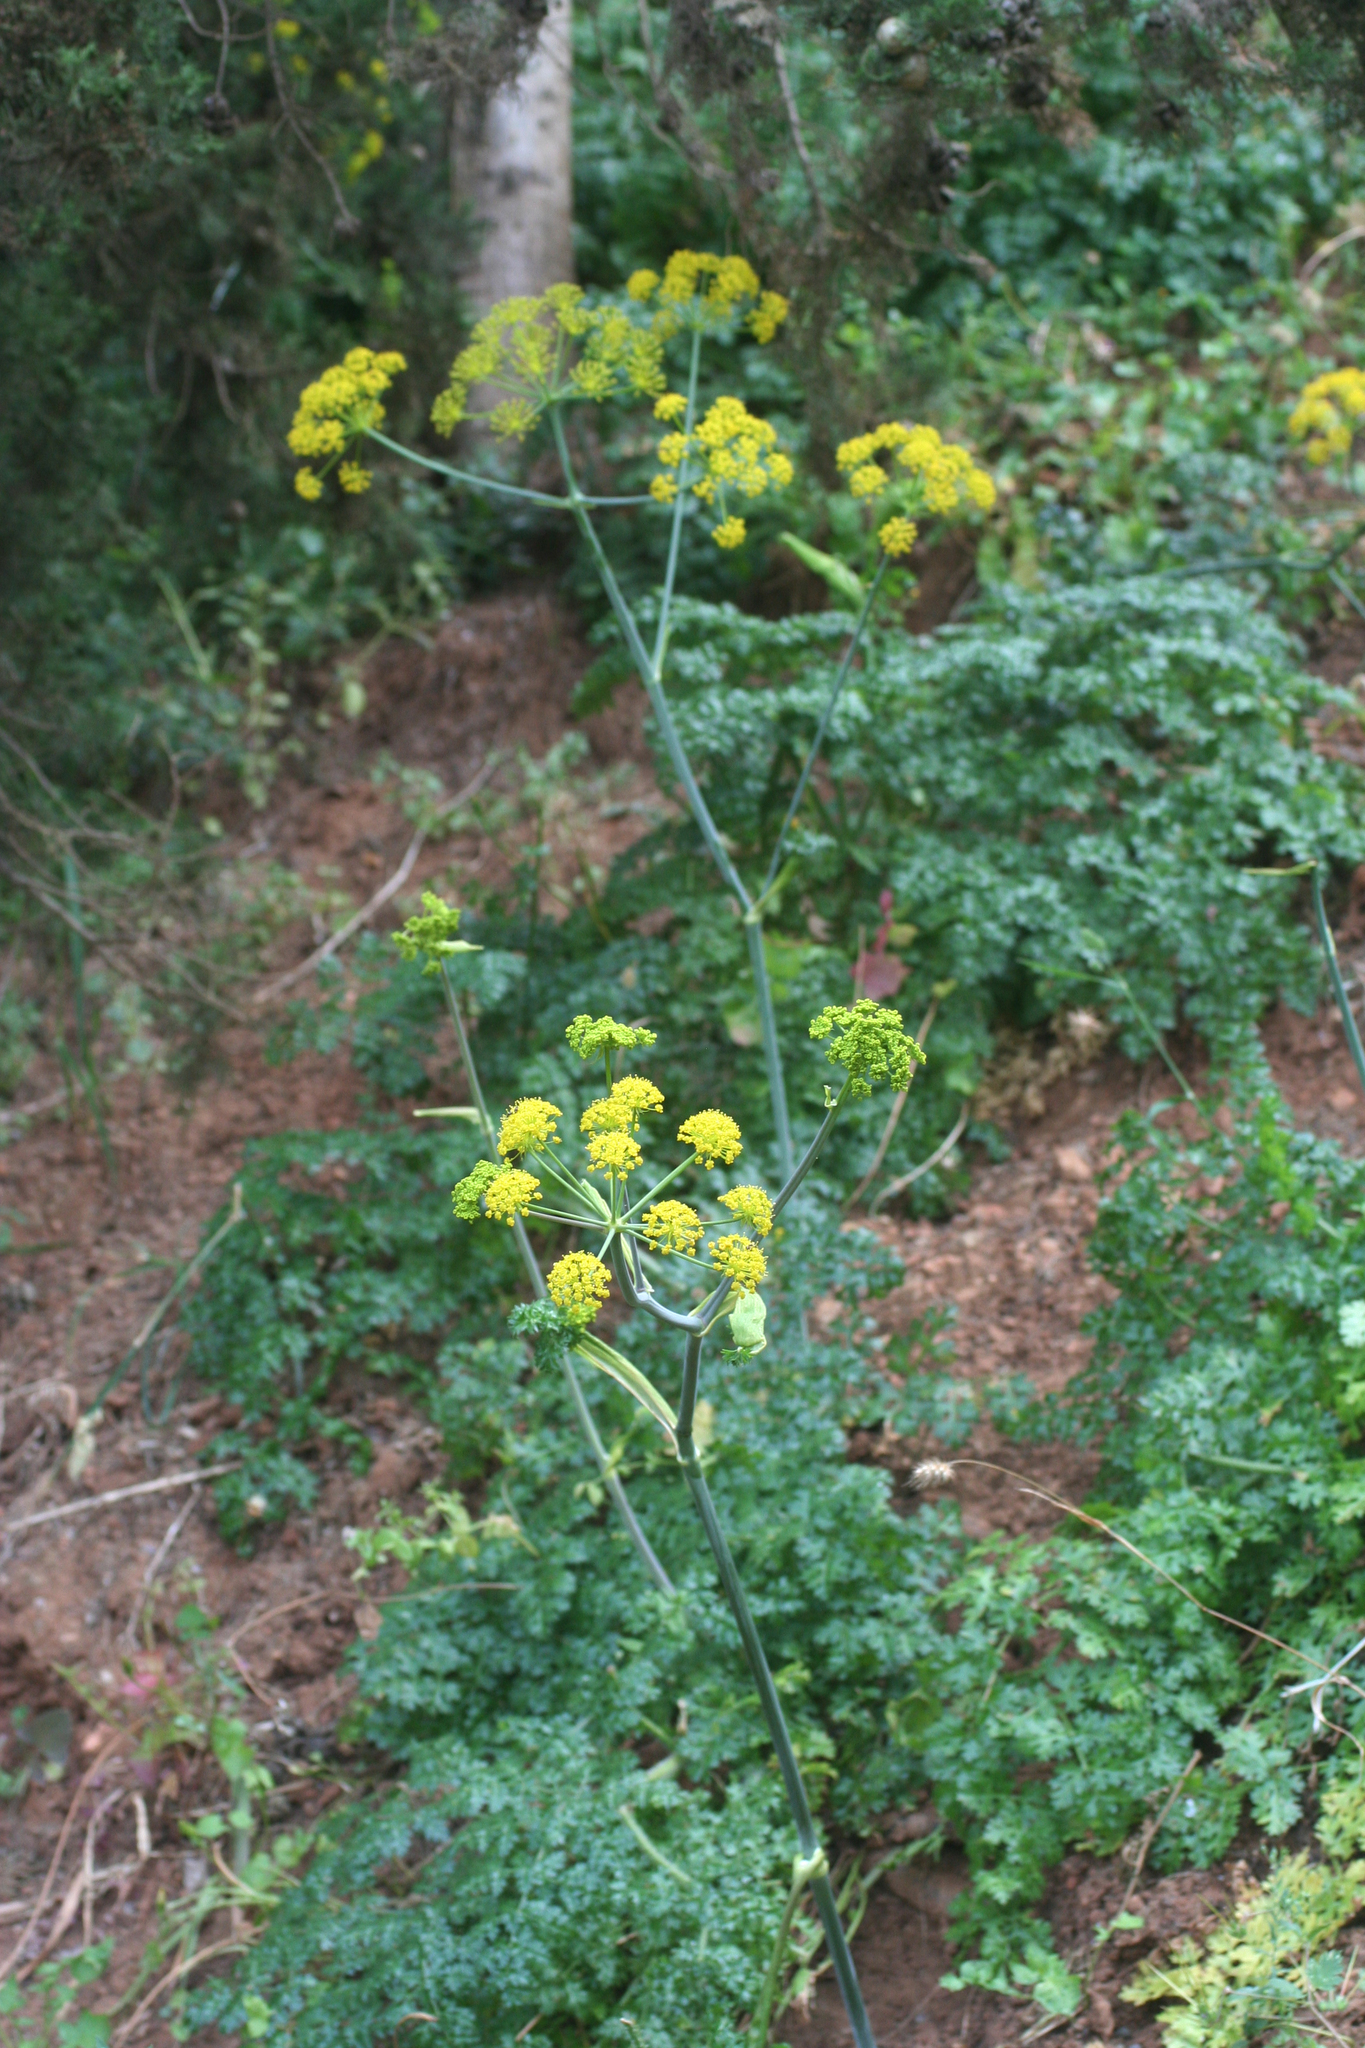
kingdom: Plantae
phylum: Tracheophyta
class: Magnoliopsida
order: Apiales
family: Apiaceae
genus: Thapsia
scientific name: Thapsia foetida
